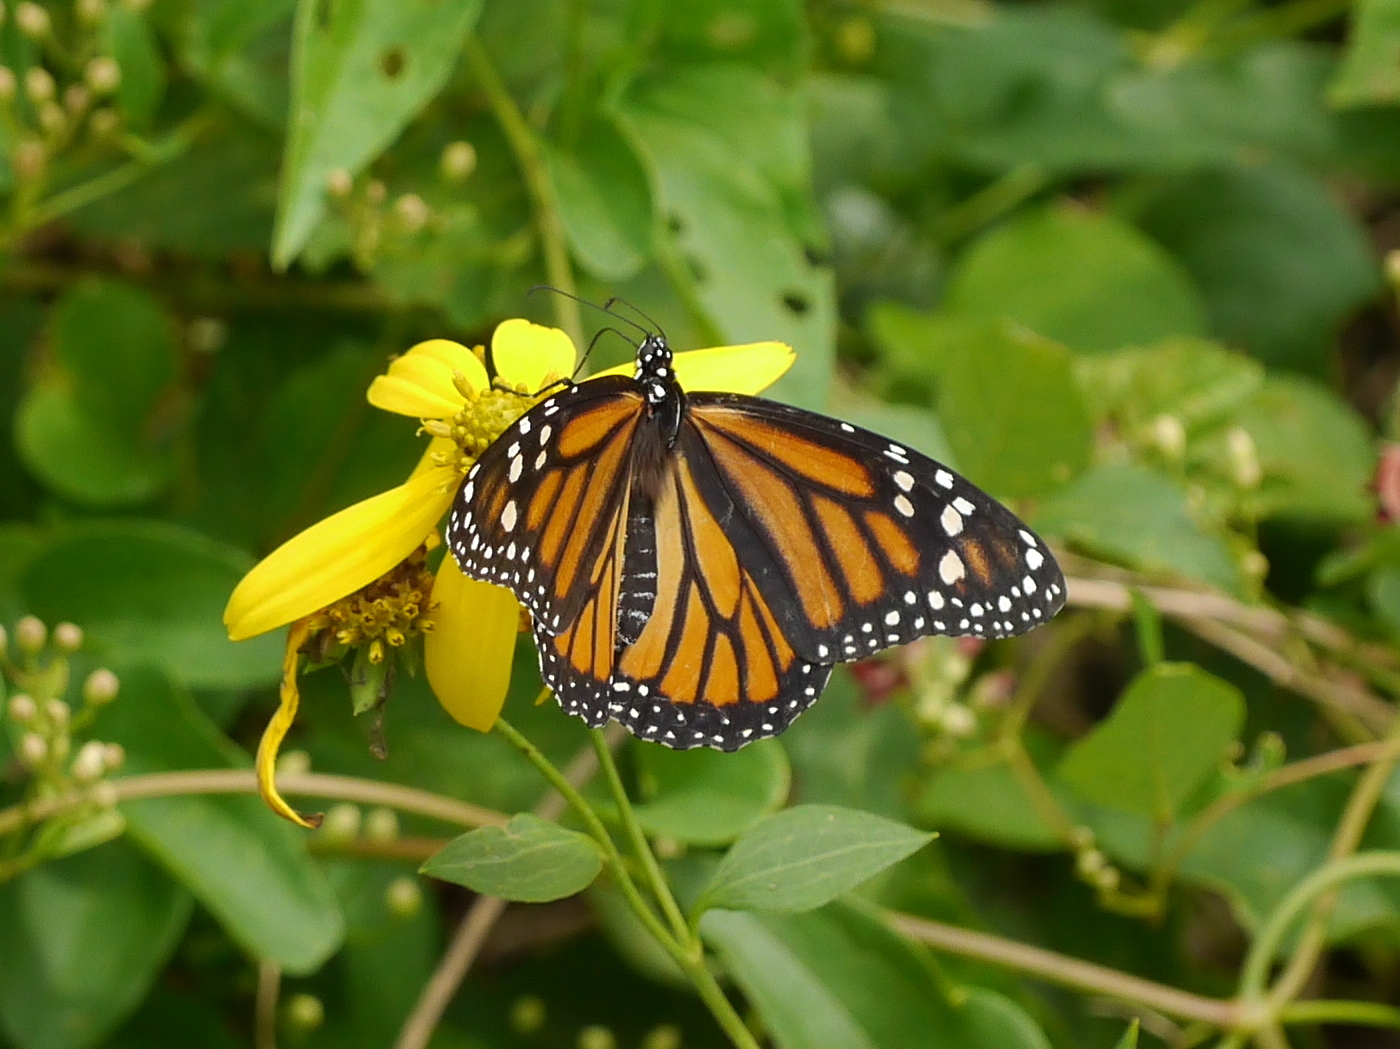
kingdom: Animalia
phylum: Arthropoda
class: Insecta
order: Lepidoptera
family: Nymphalidae
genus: Danaus
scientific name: Danaus plexippus
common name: Monarch
